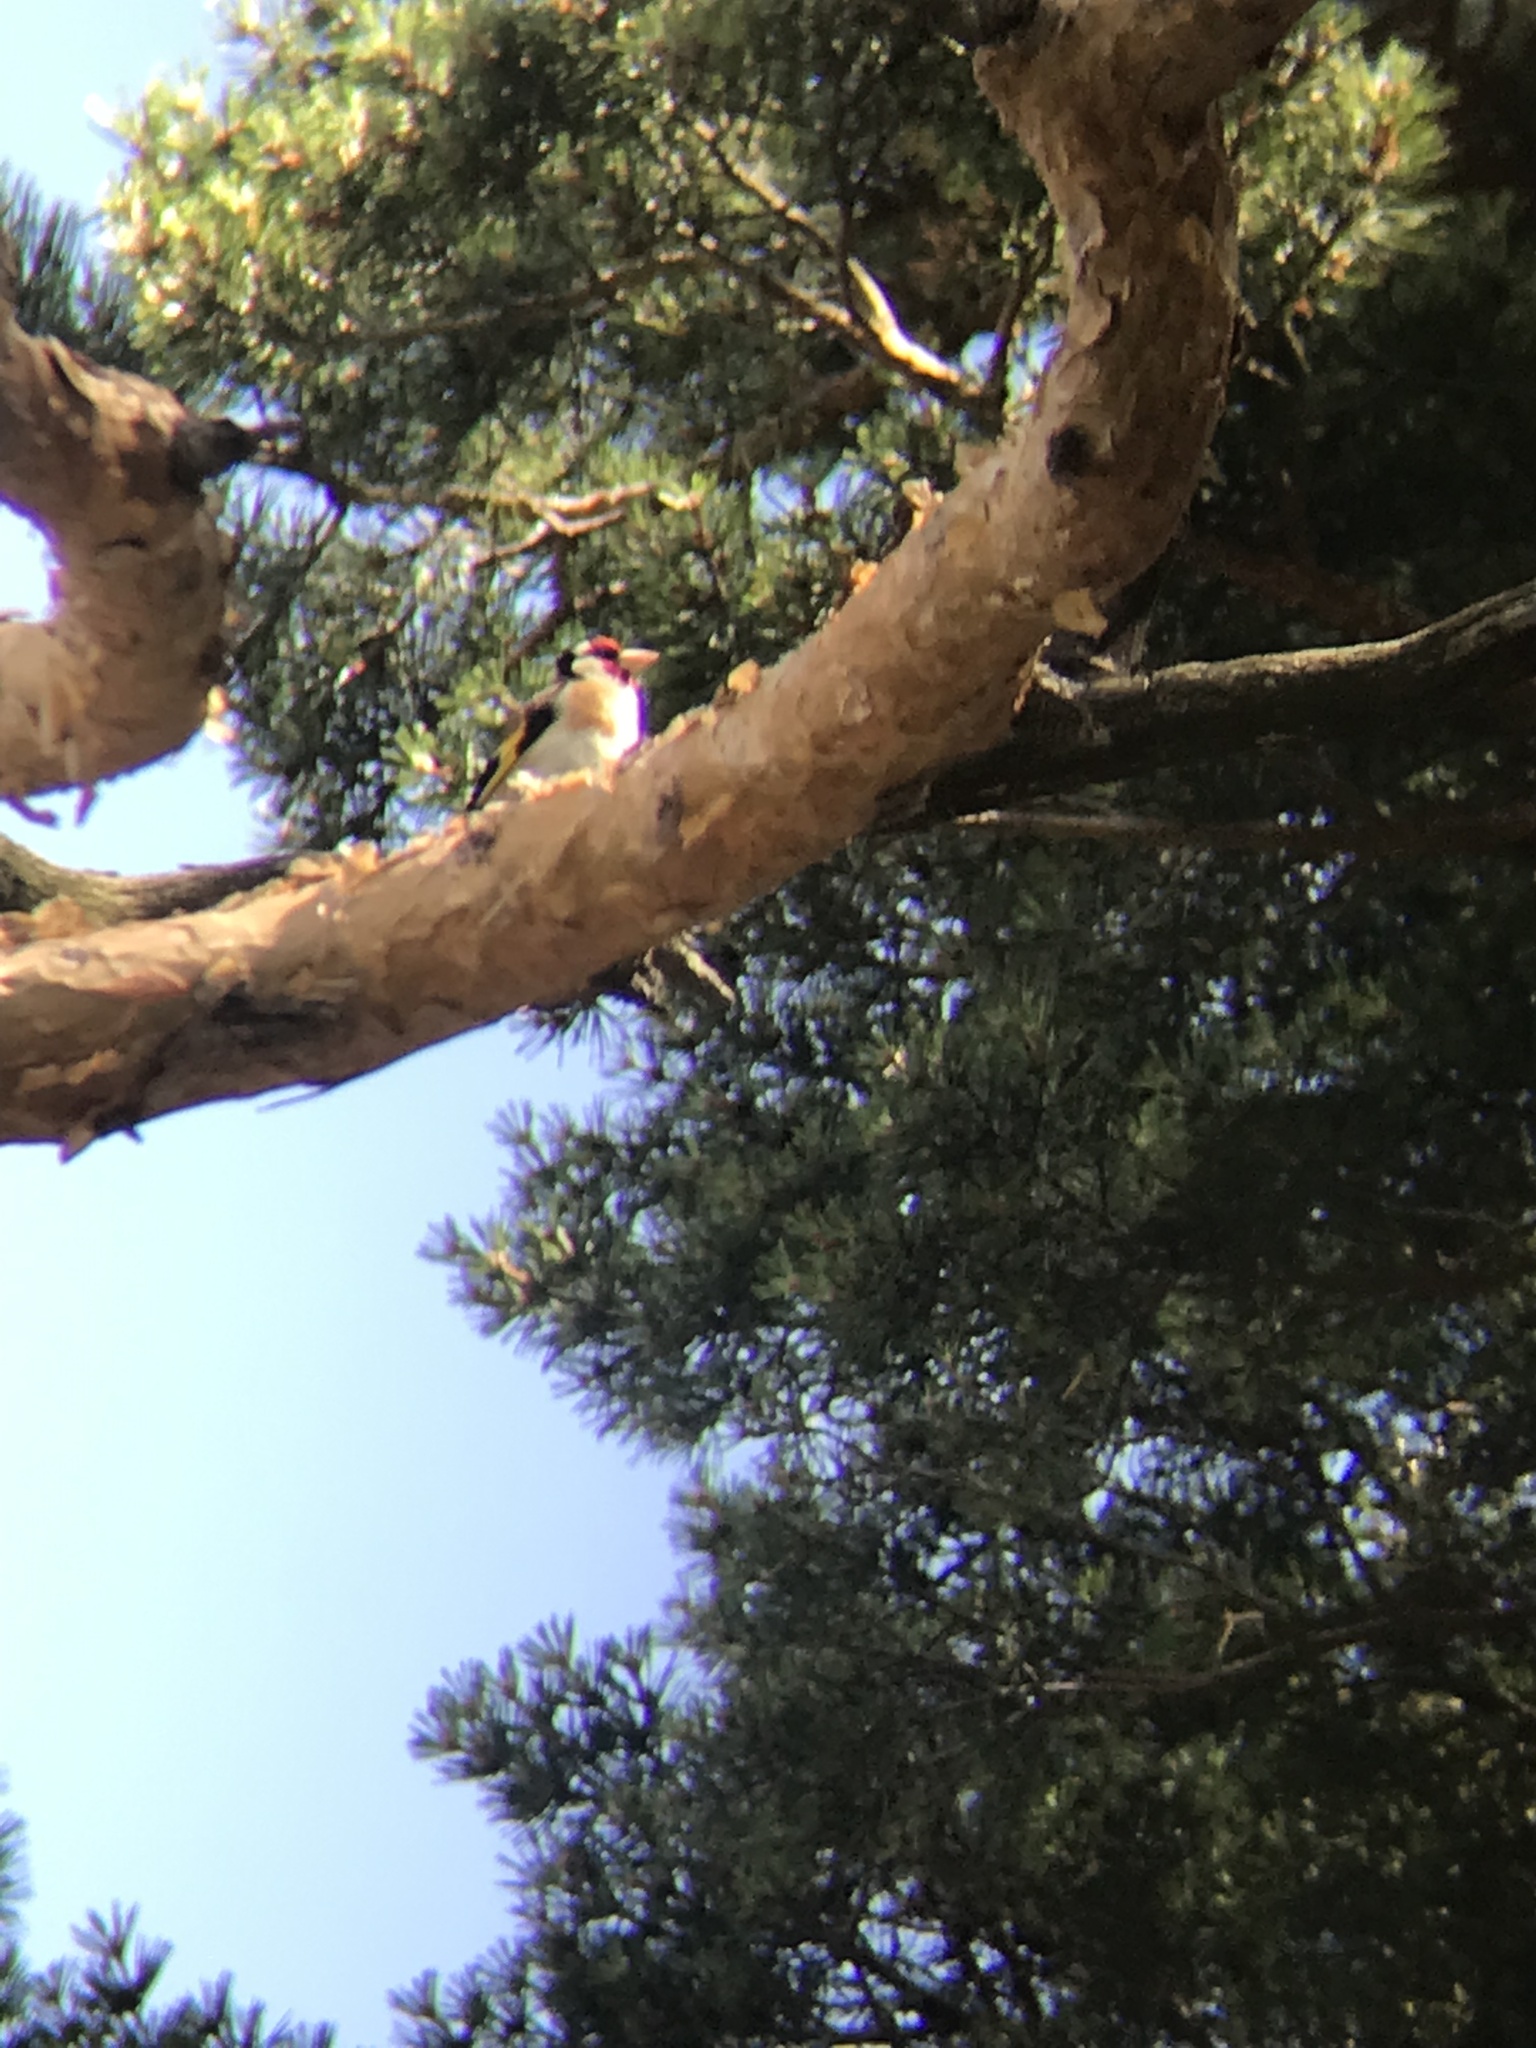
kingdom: Animalia
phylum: Chordata
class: Aves
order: Passeriformes
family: Fringillidae
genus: Carduelis
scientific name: Carduelis carduelis
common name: European goldfinch
